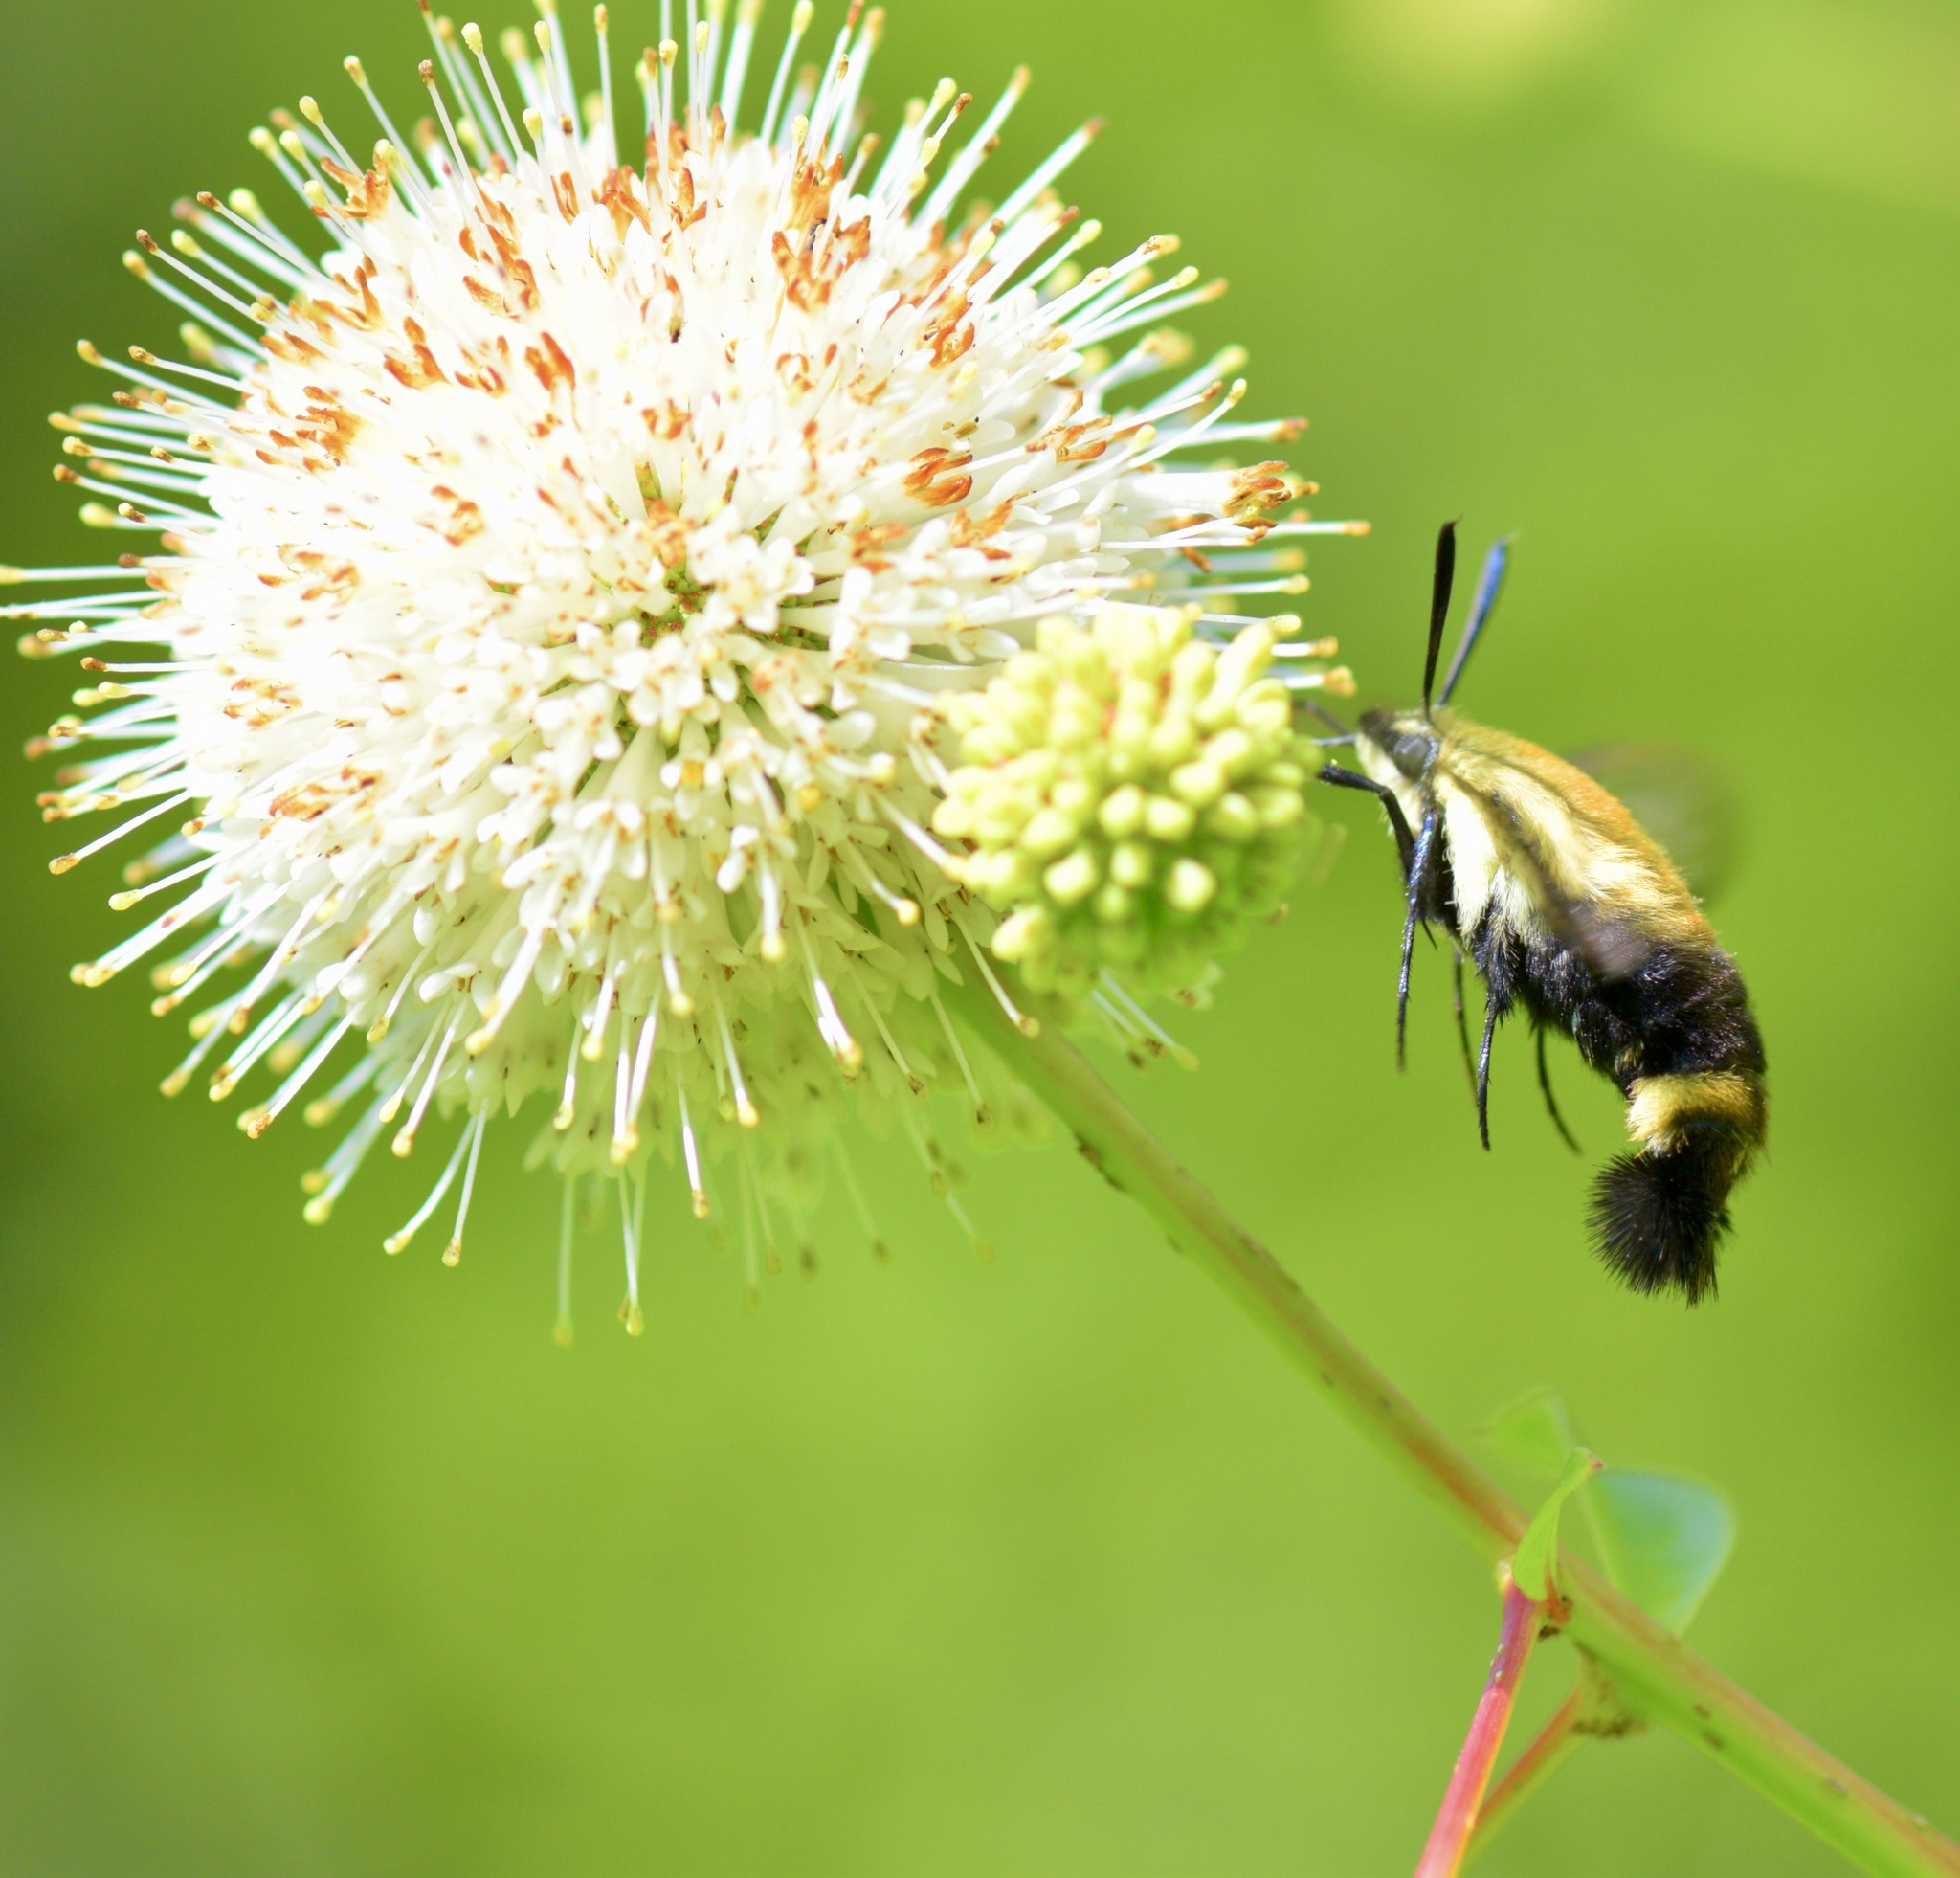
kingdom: Animalia
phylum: Arthropoda
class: Insecta
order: Lepidoptera
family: Sphingidae
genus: Hemaris
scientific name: Hemaris diffinis
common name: Bumblebee moth
